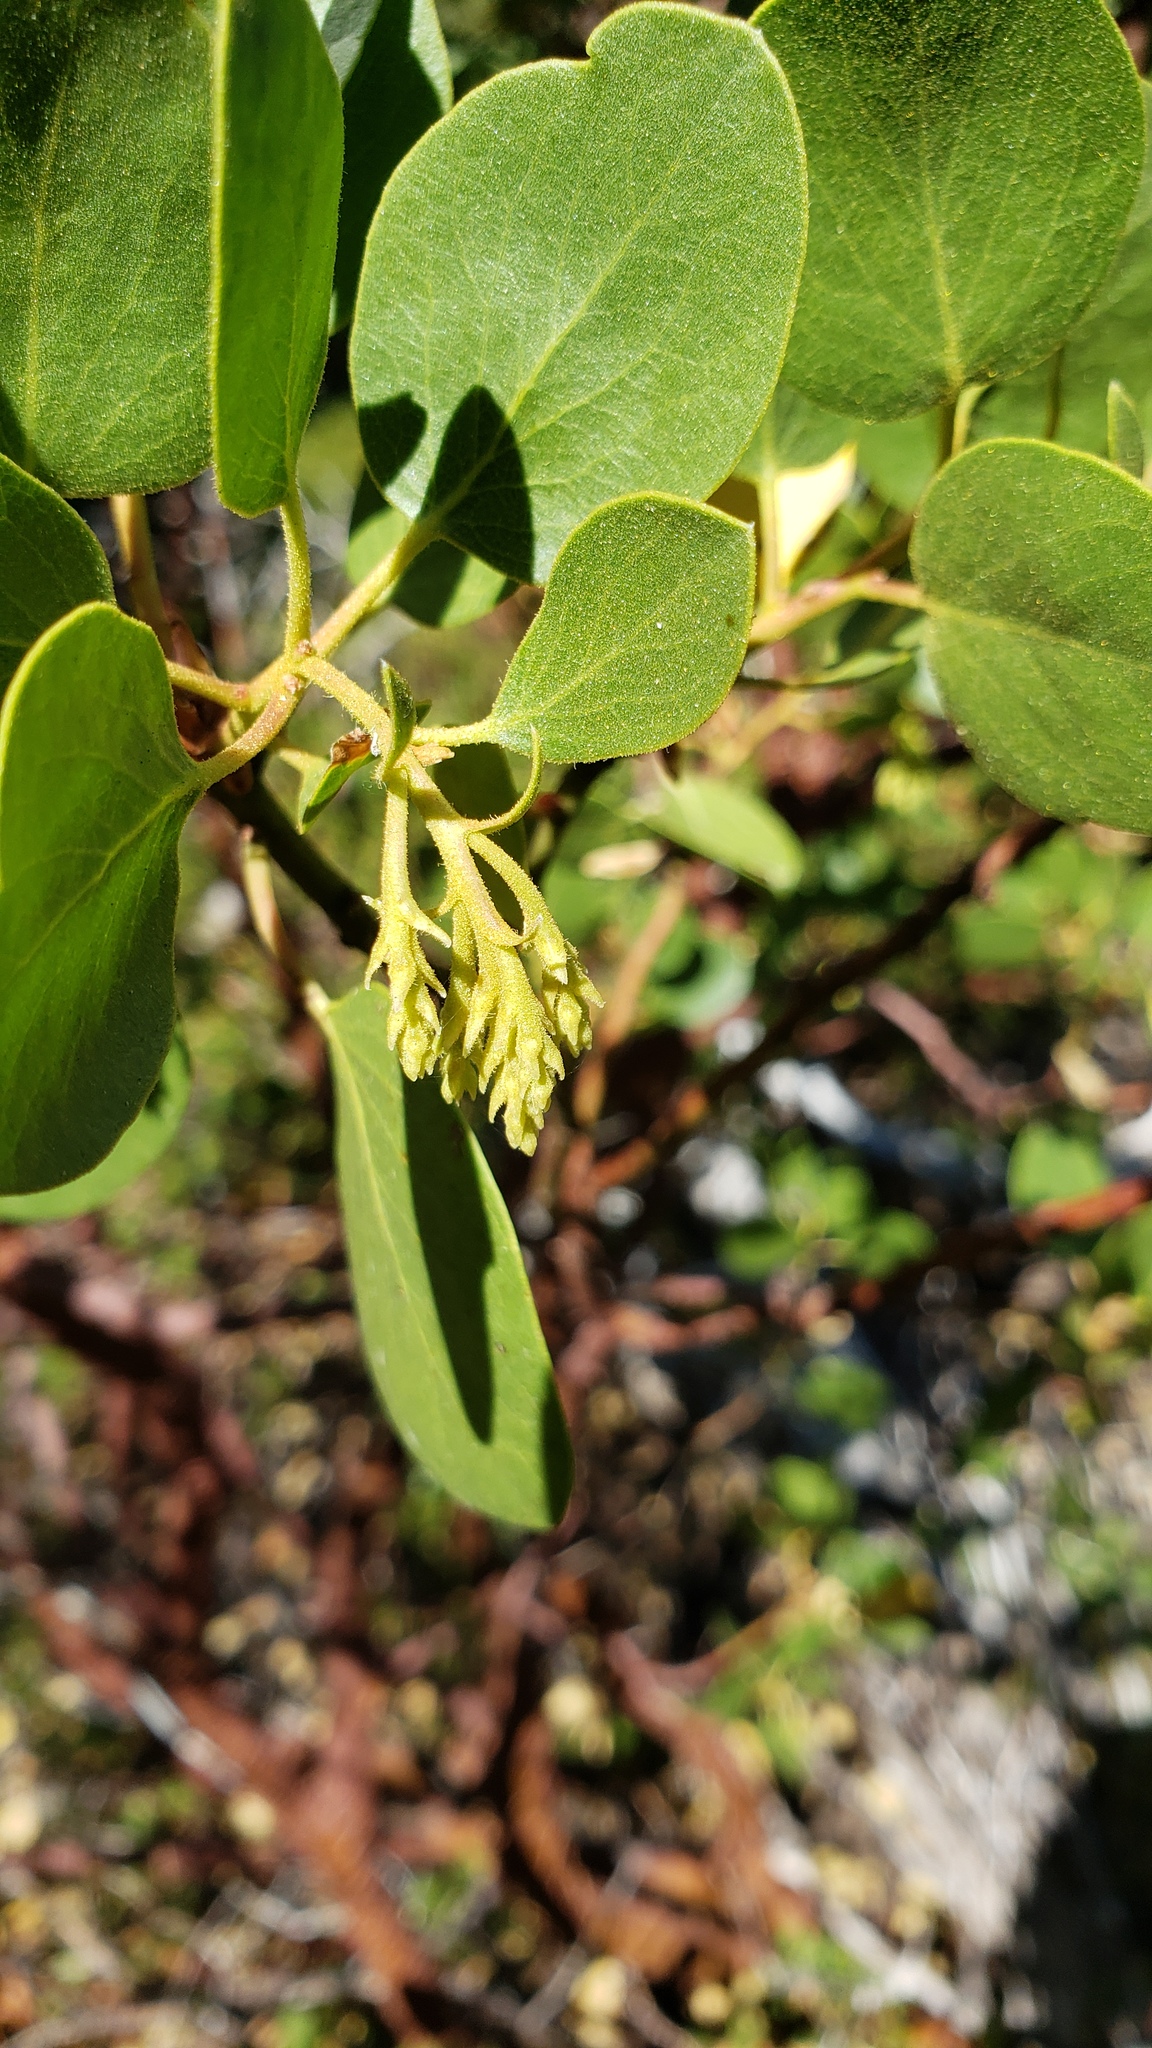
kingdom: Plantae
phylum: Tracheophyta
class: Magnoliopsida
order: Ericales
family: Ericaceae
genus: Arctostaphylos
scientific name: Arctostaphylos patula
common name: Green-leaf manzanita
